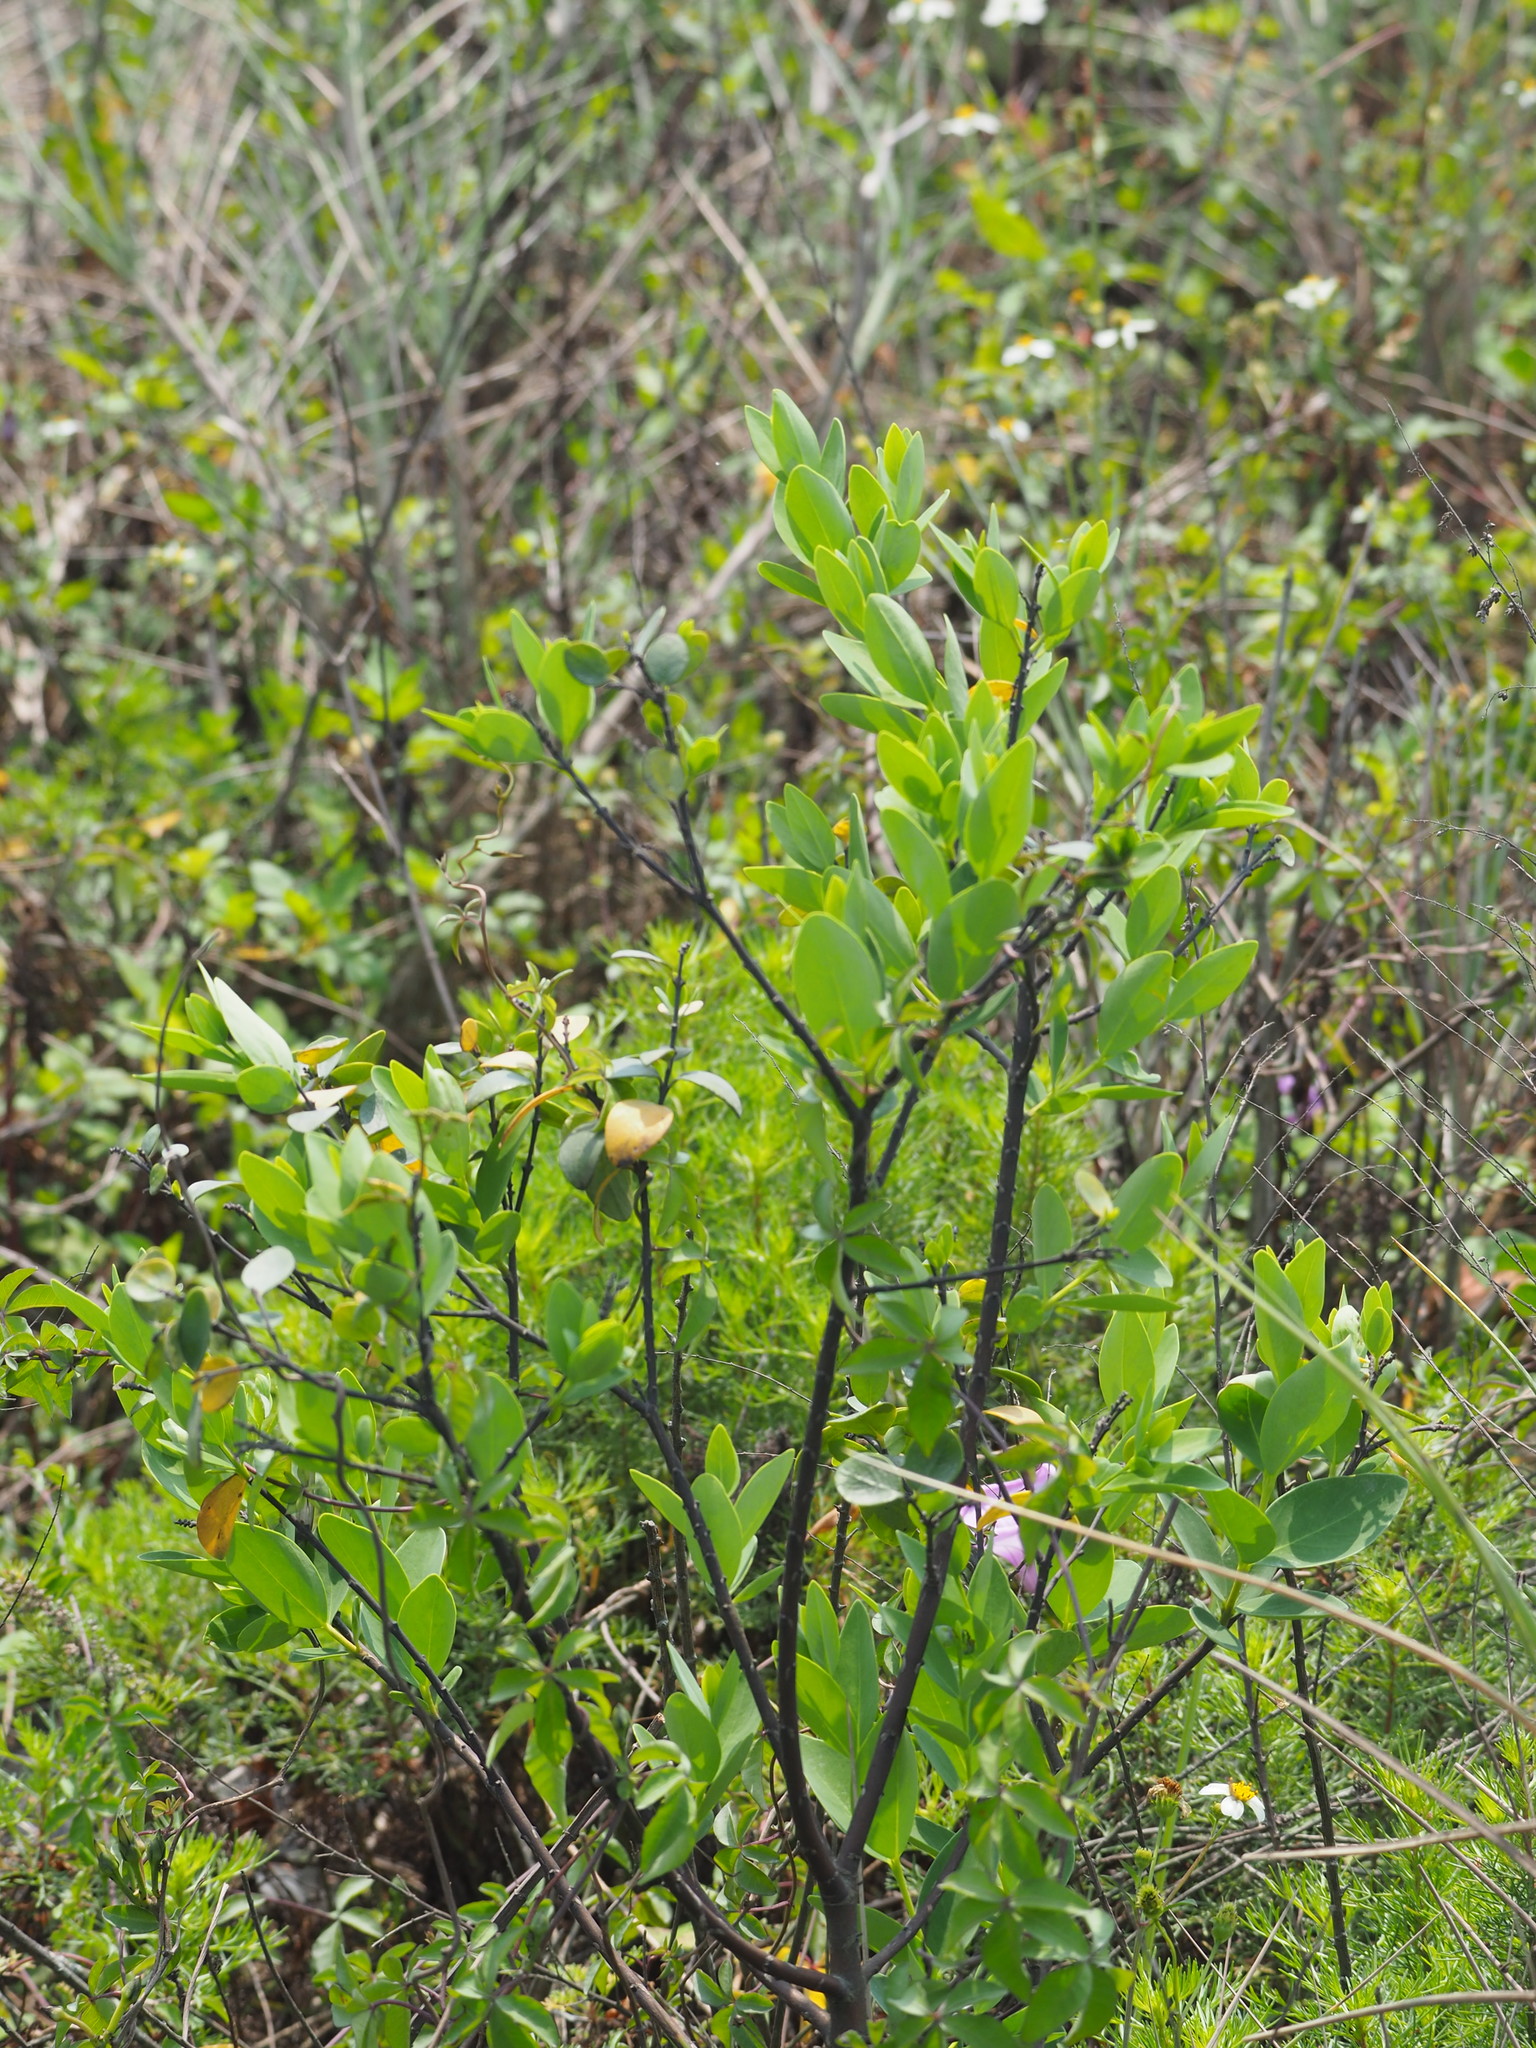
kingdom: Plantae
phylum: Tracheophyta
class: Magnoliopsida
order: Malvales
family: Thymelaeaceae
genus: Wikstroemia
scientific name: Wikstroemia indica
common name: Tiebush
